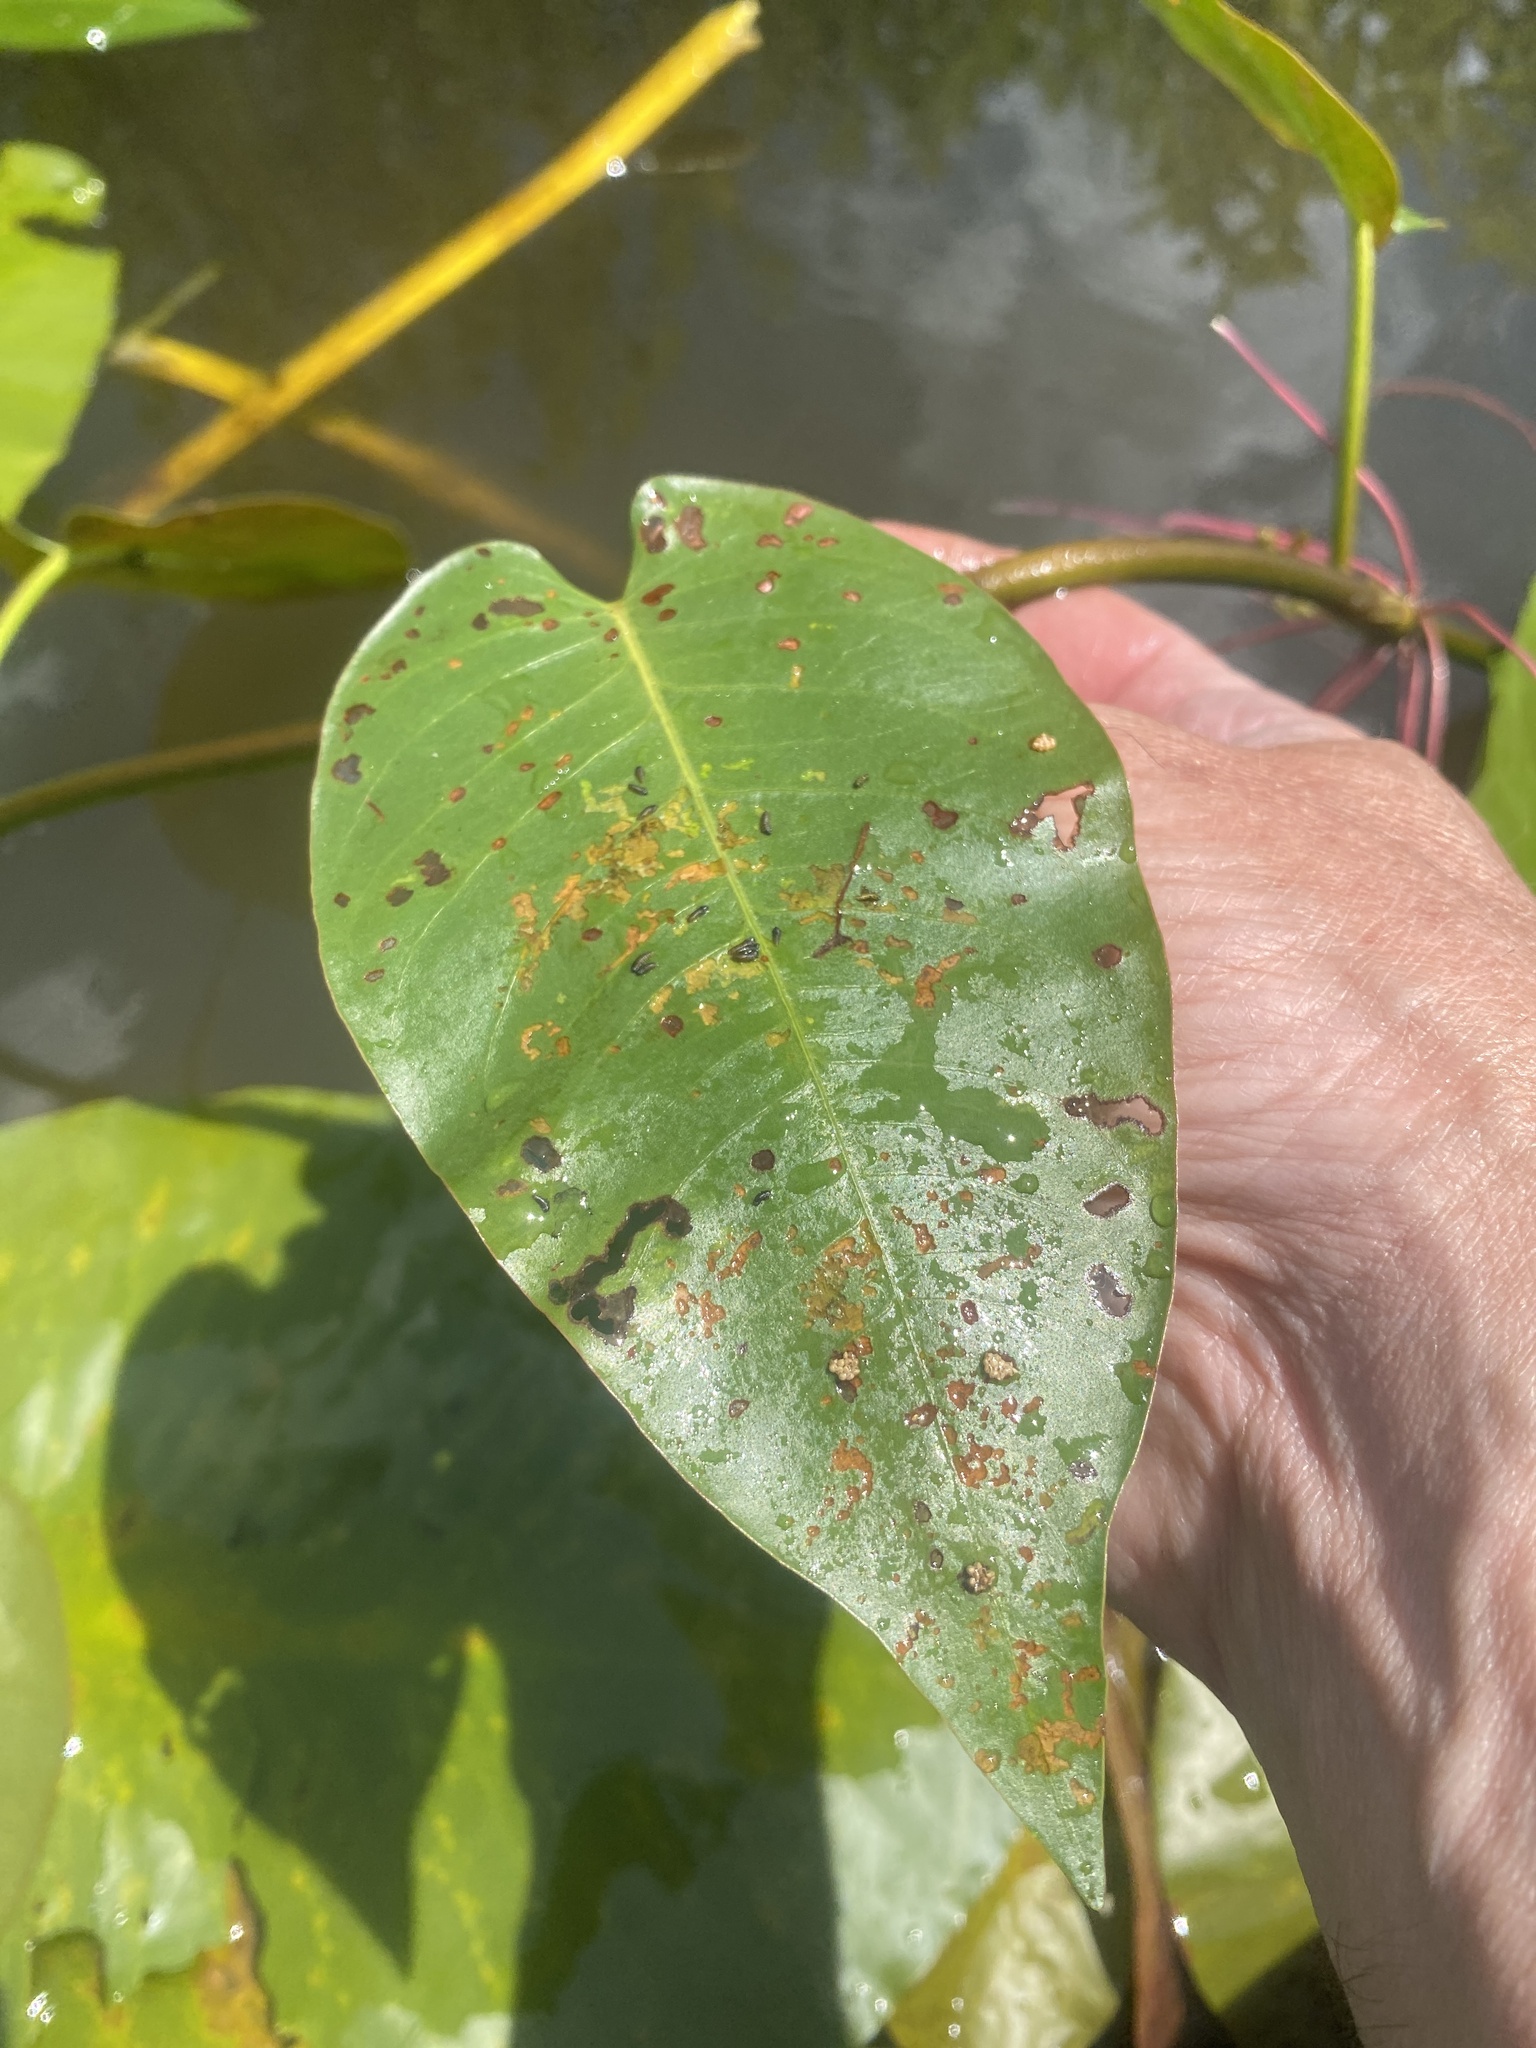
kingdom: Plantae
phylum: Tracheophyta
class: Magnoliopsida
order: Caryophyllales
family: Polygonaceae
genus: Persicaria
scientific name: Persicaria amphibia
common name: Amphibious bistort
